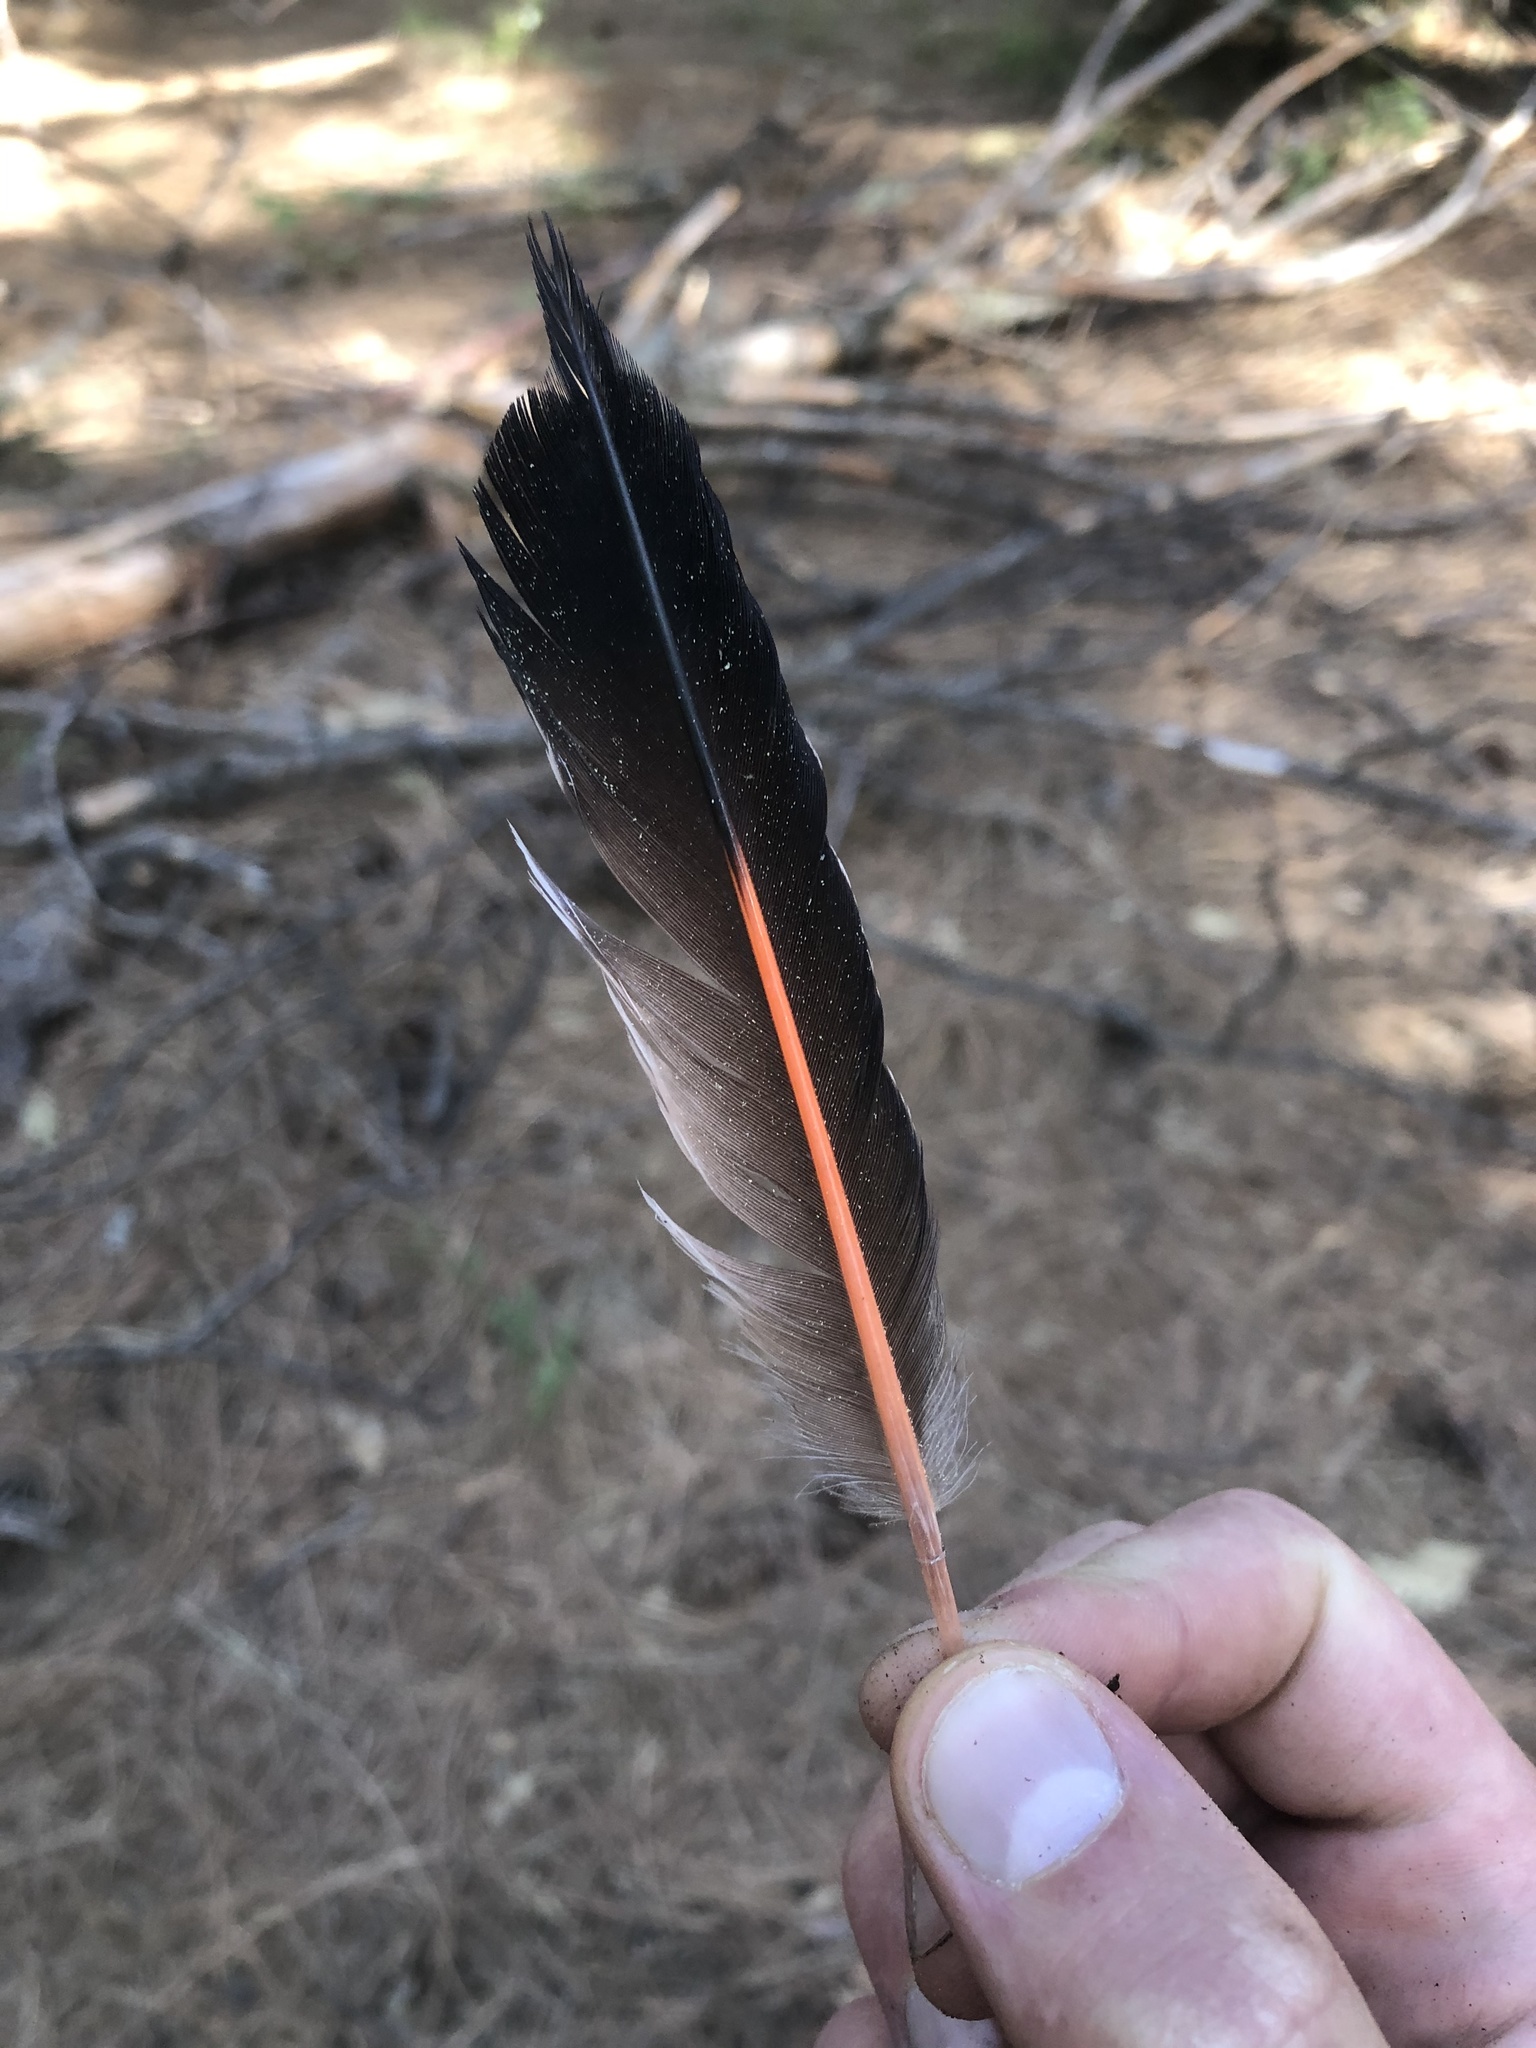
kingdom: Animalia
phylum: Chordata
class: Aves
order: Piciformes
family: Picidae
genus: Colaptes
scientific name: Colaptes auratus
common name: Northern flicker
